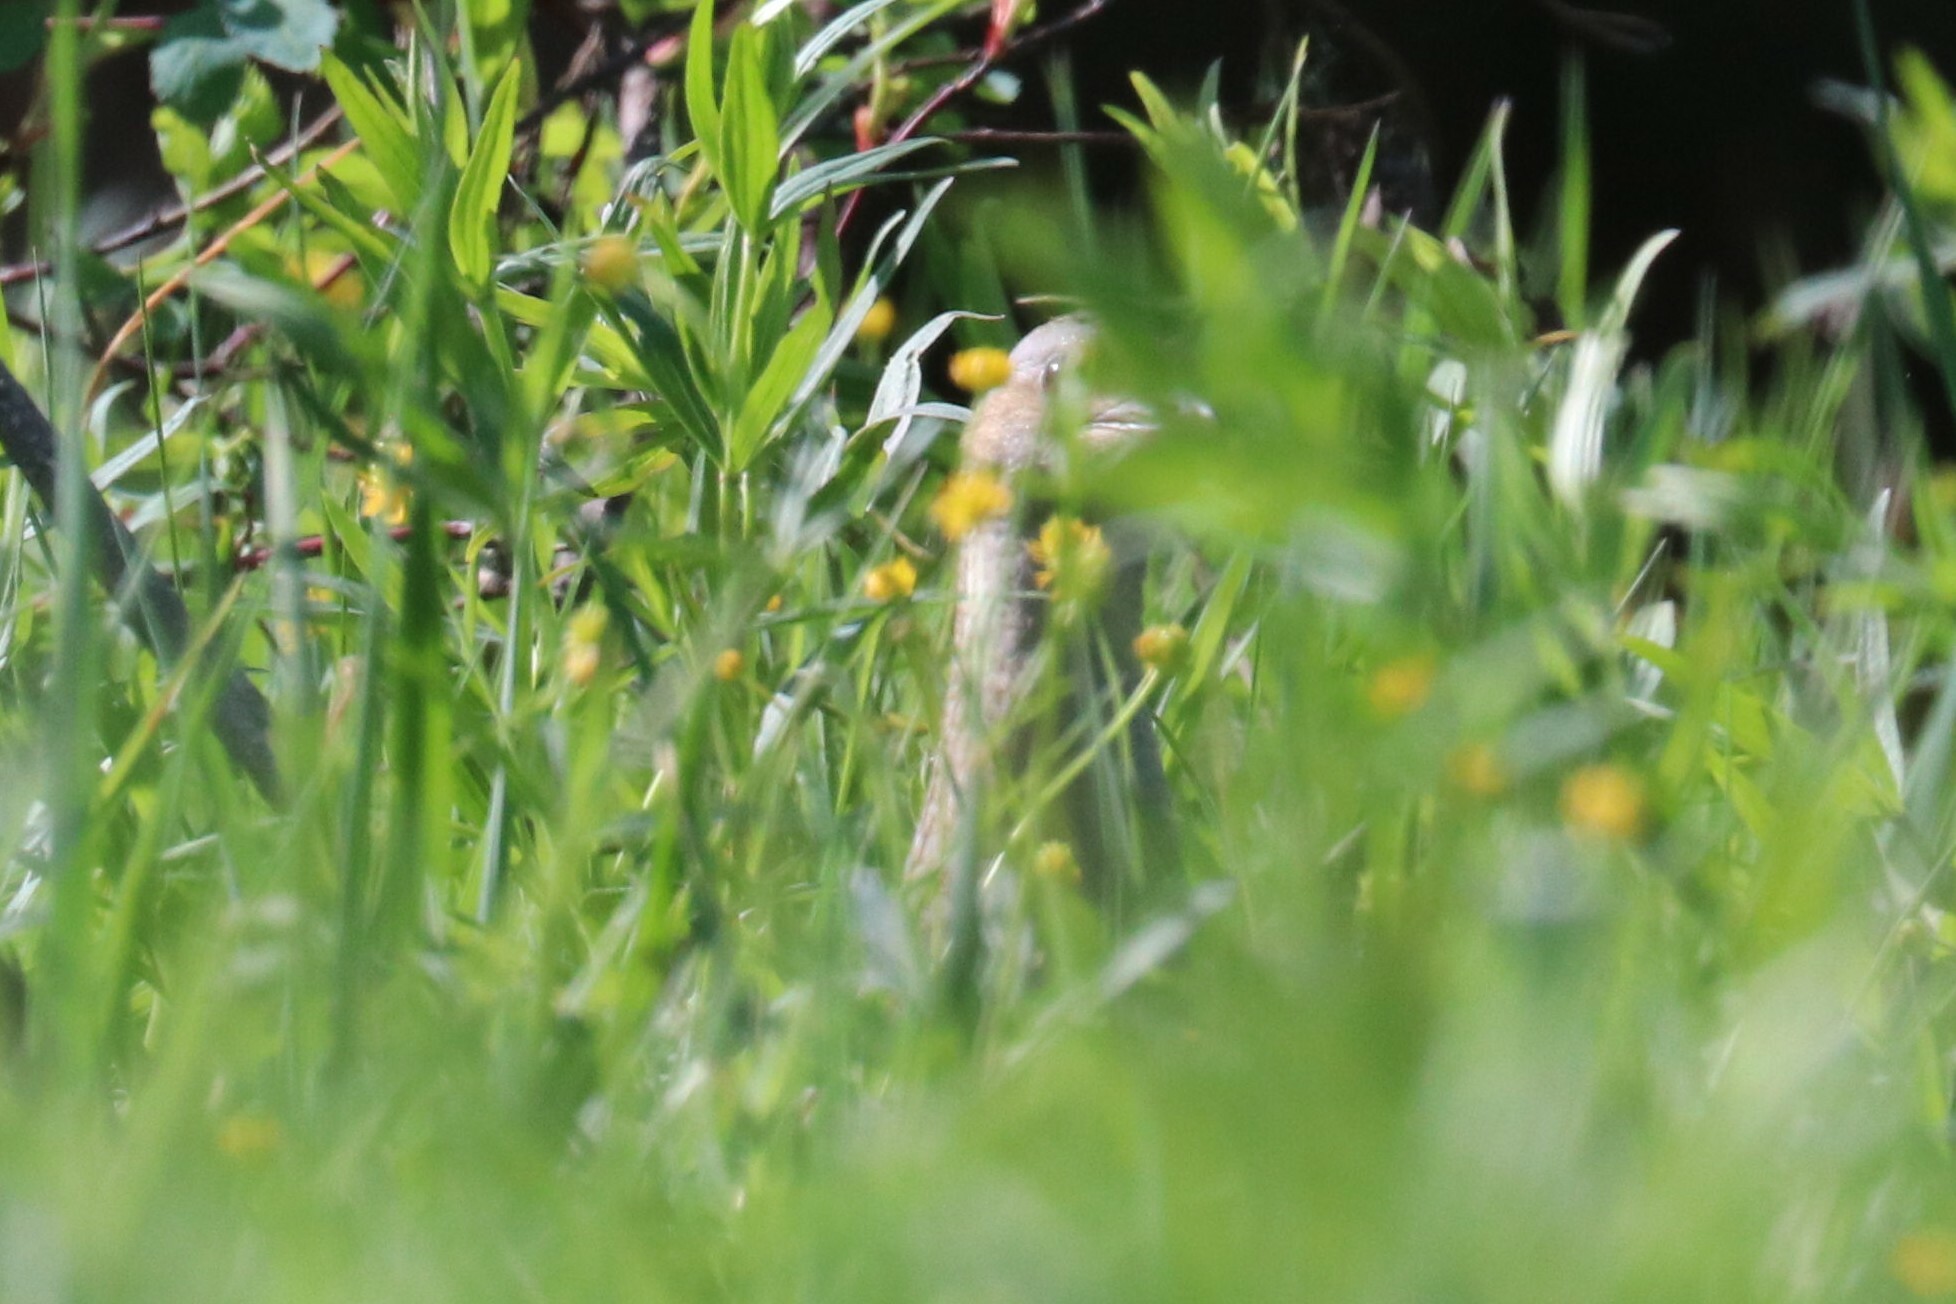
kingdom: Animalia
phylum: Chordata
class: Aves
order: Gruiformes
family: Rallidae
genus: Crex
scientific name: Crex crex
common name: Corn crake
